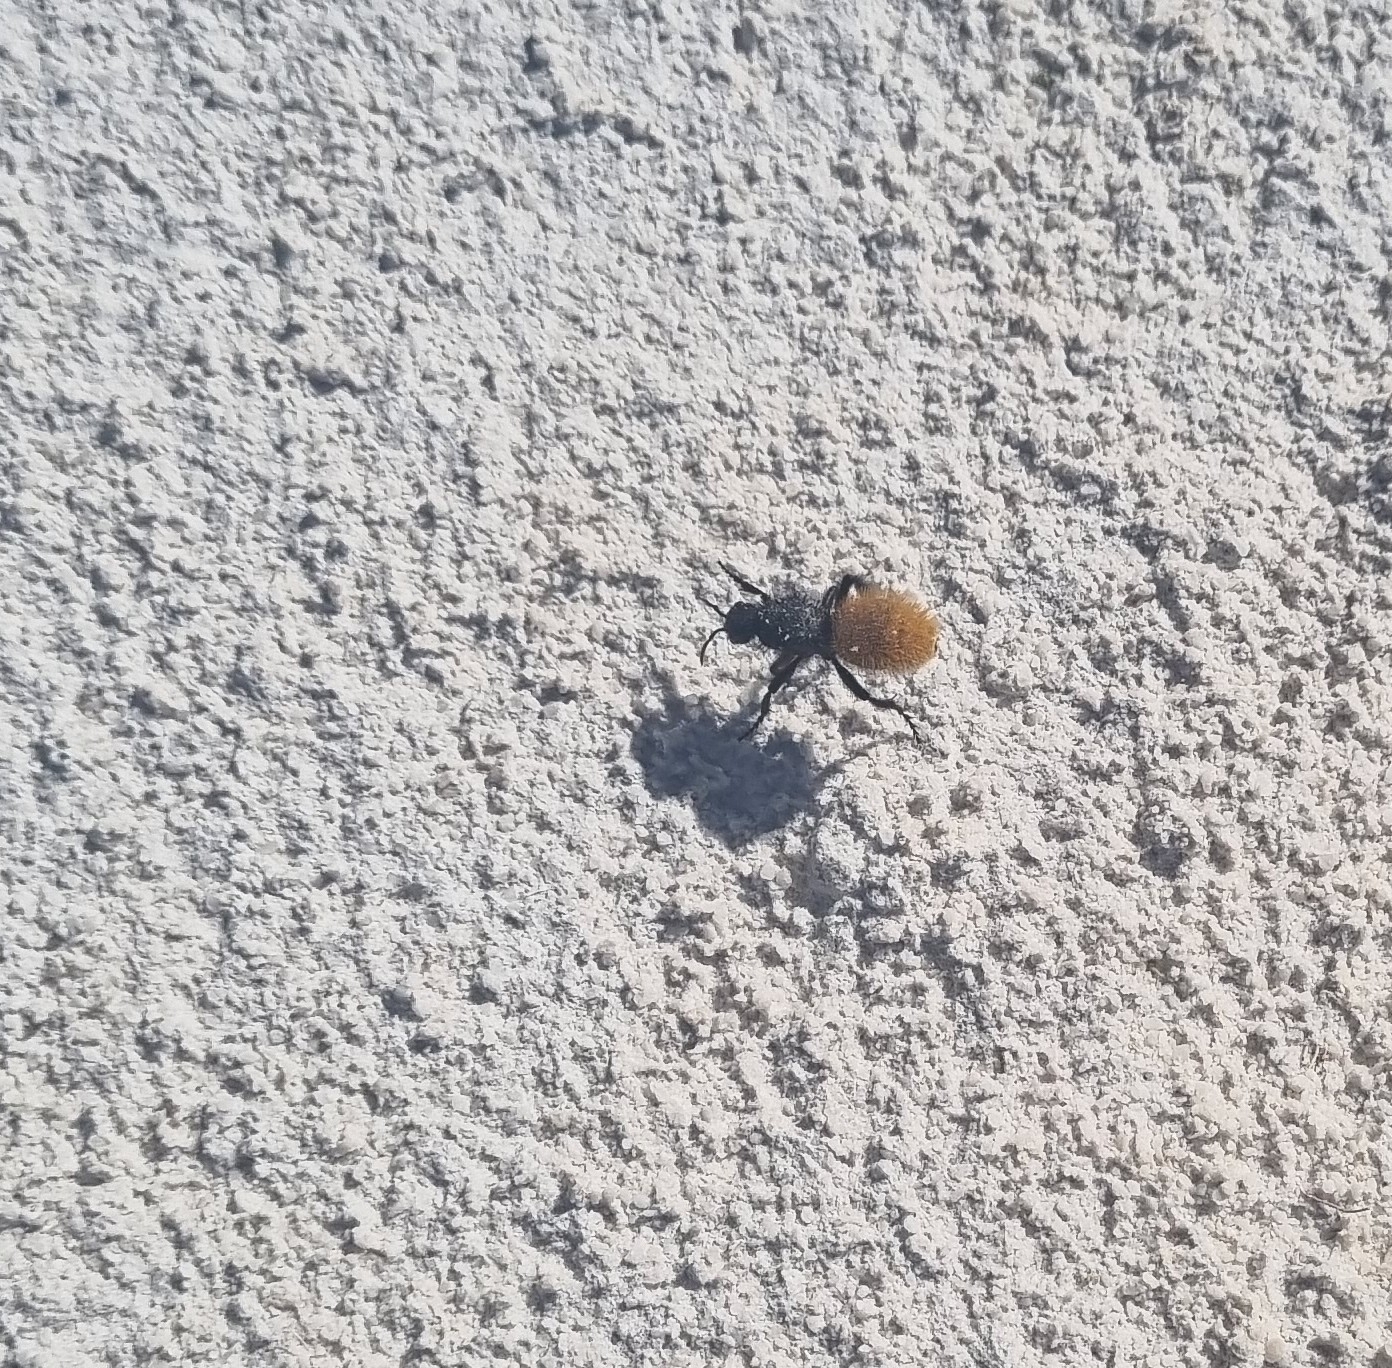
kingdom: Animalia
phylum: Arthropoda
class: Insecta
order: Hymenoptera
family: Mutillidae
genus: Dasymutilla
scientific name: Dasymutilla
